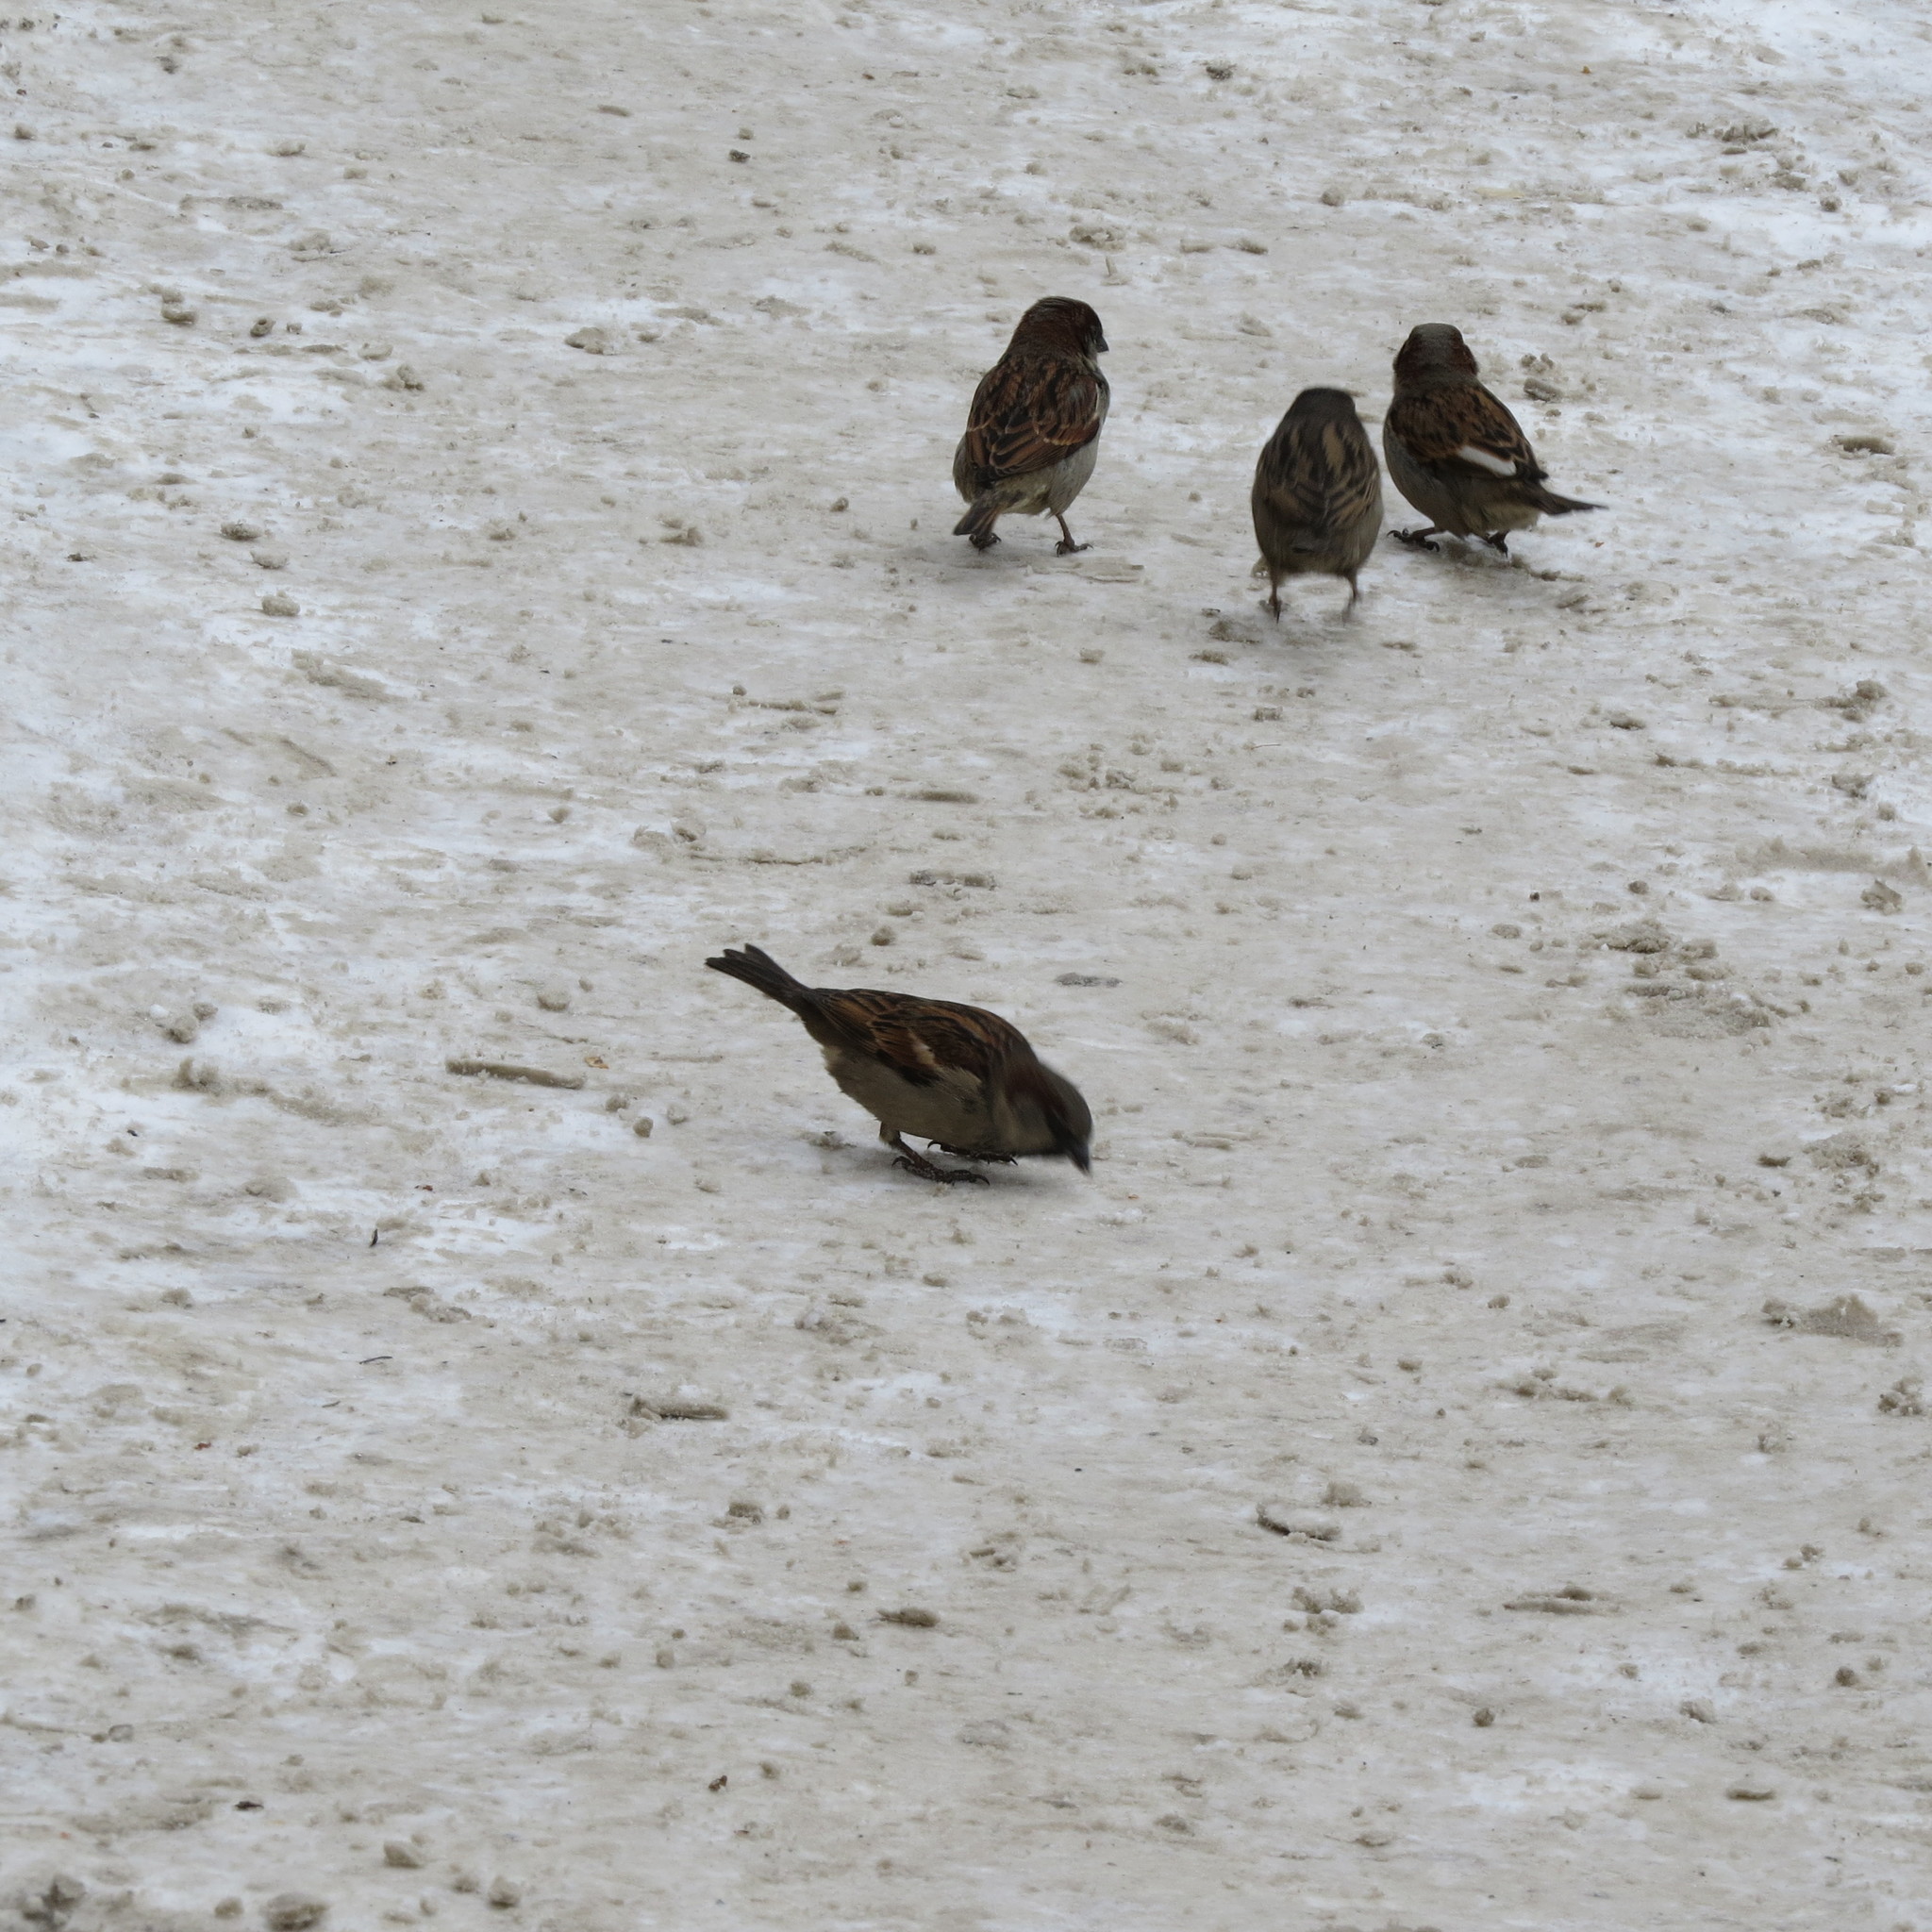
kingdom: Animalia
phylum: Chordata
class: Aves
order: Passeriformes
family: Passeridae
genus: Passer
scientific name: Passer domesticus
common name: House sparrow
